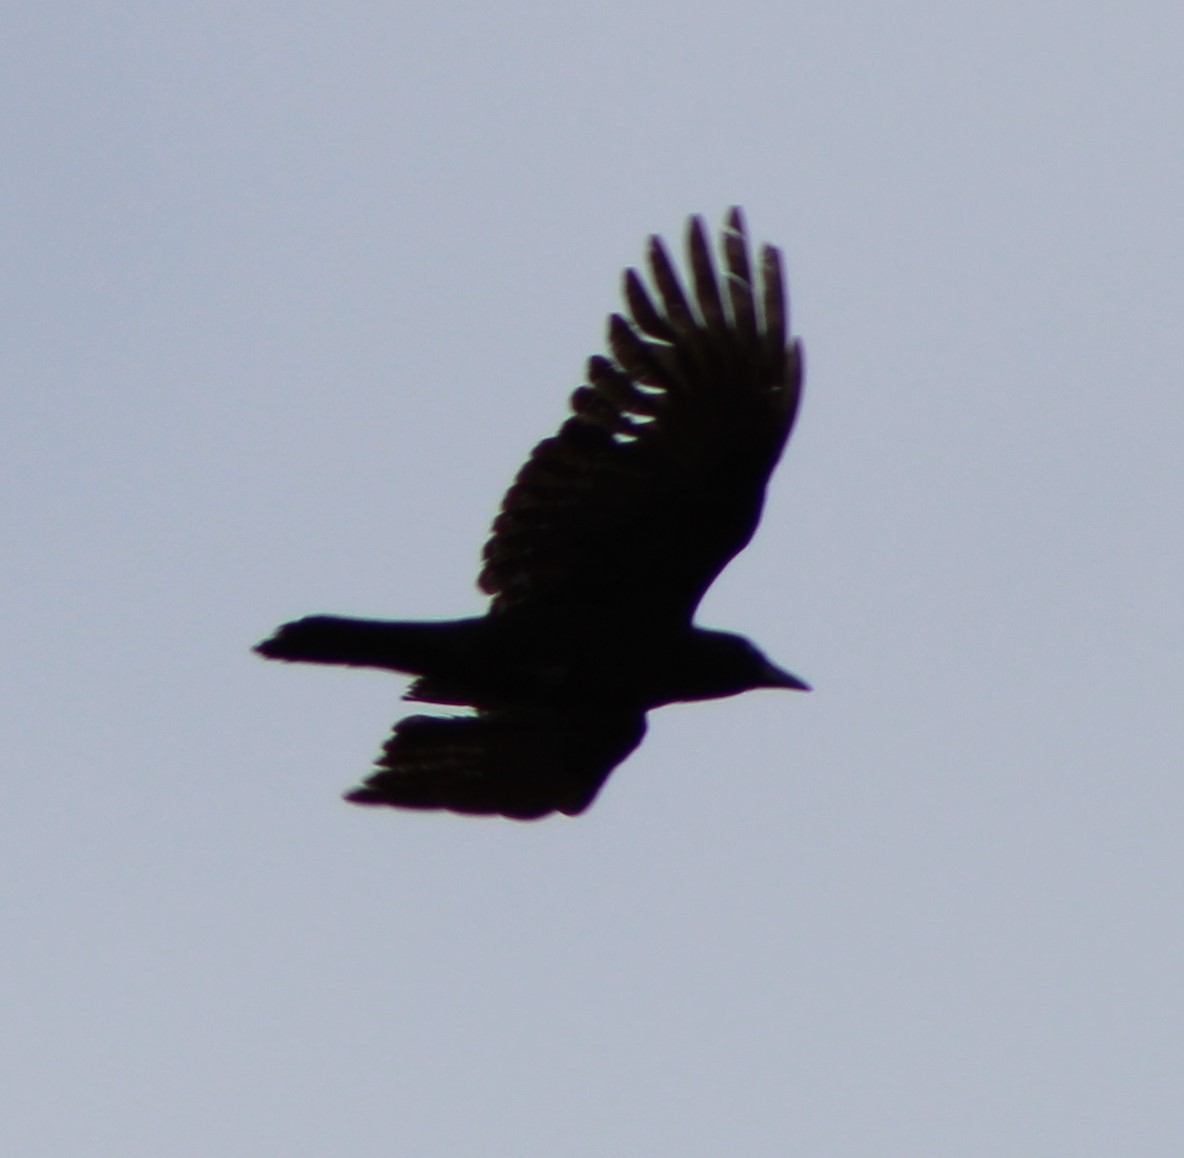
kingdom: Animalia
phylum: Chordata
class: Aves
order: Passeriformes
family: Corvidae
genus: Corvus
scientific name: Corvus brachyrhynchos
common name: American crow
